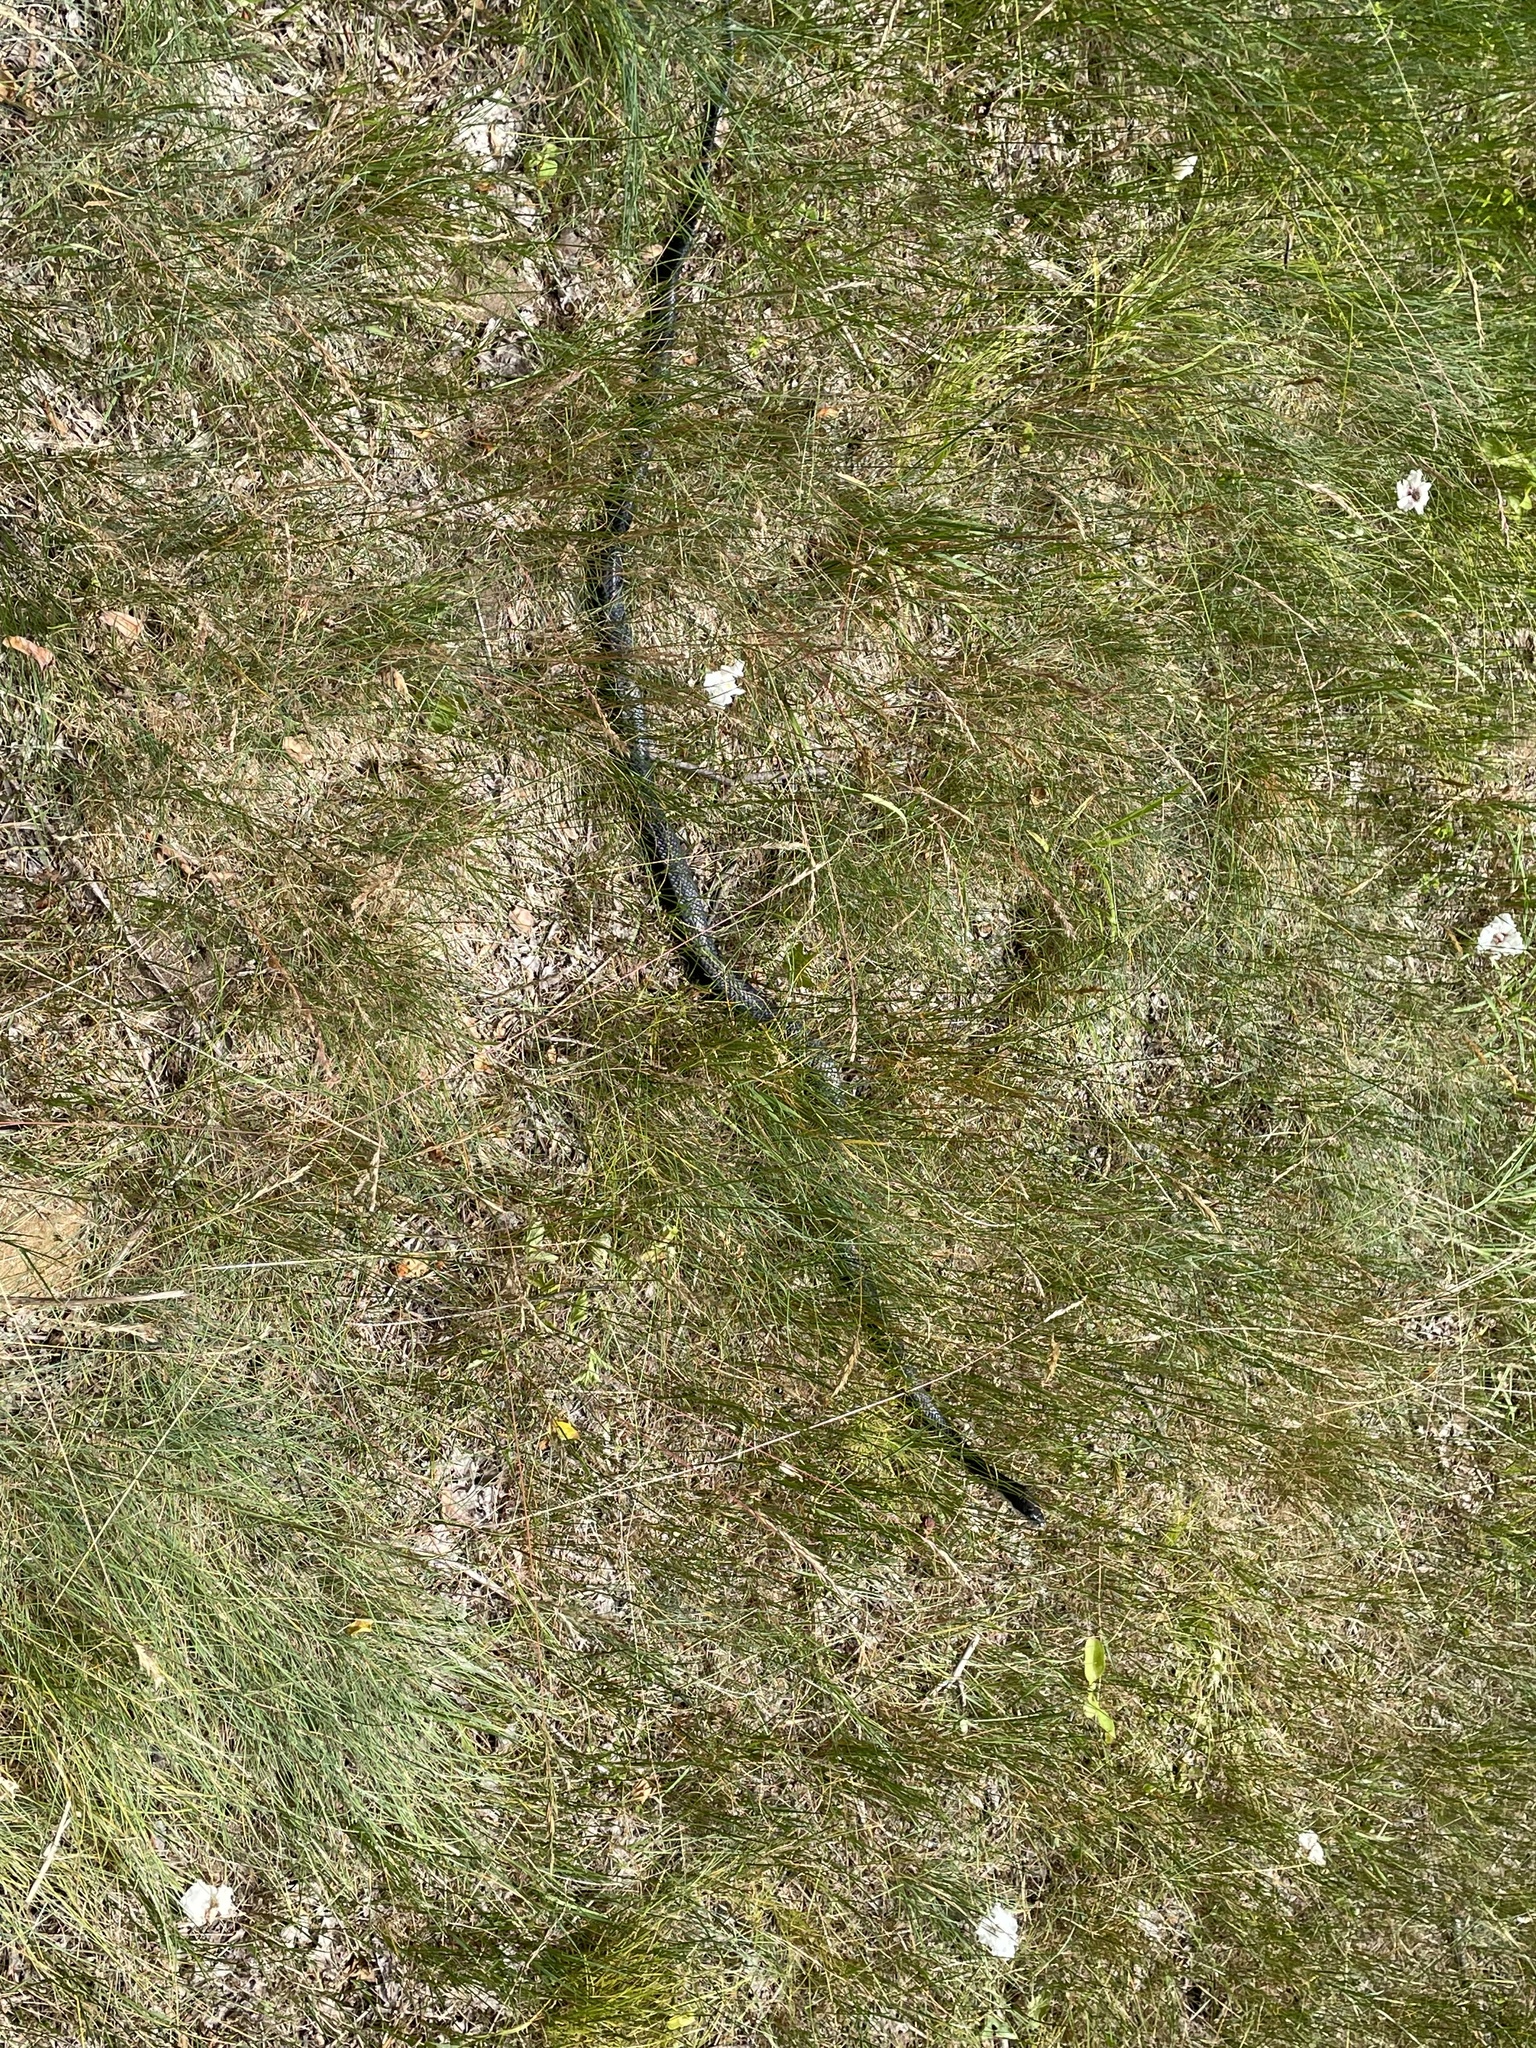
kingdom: Animalia
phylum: Chordata
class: Squamata
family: Colubridae
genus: Pantherophis
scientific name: Pantherophis alleghaniensis
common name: Eastern rat snake
